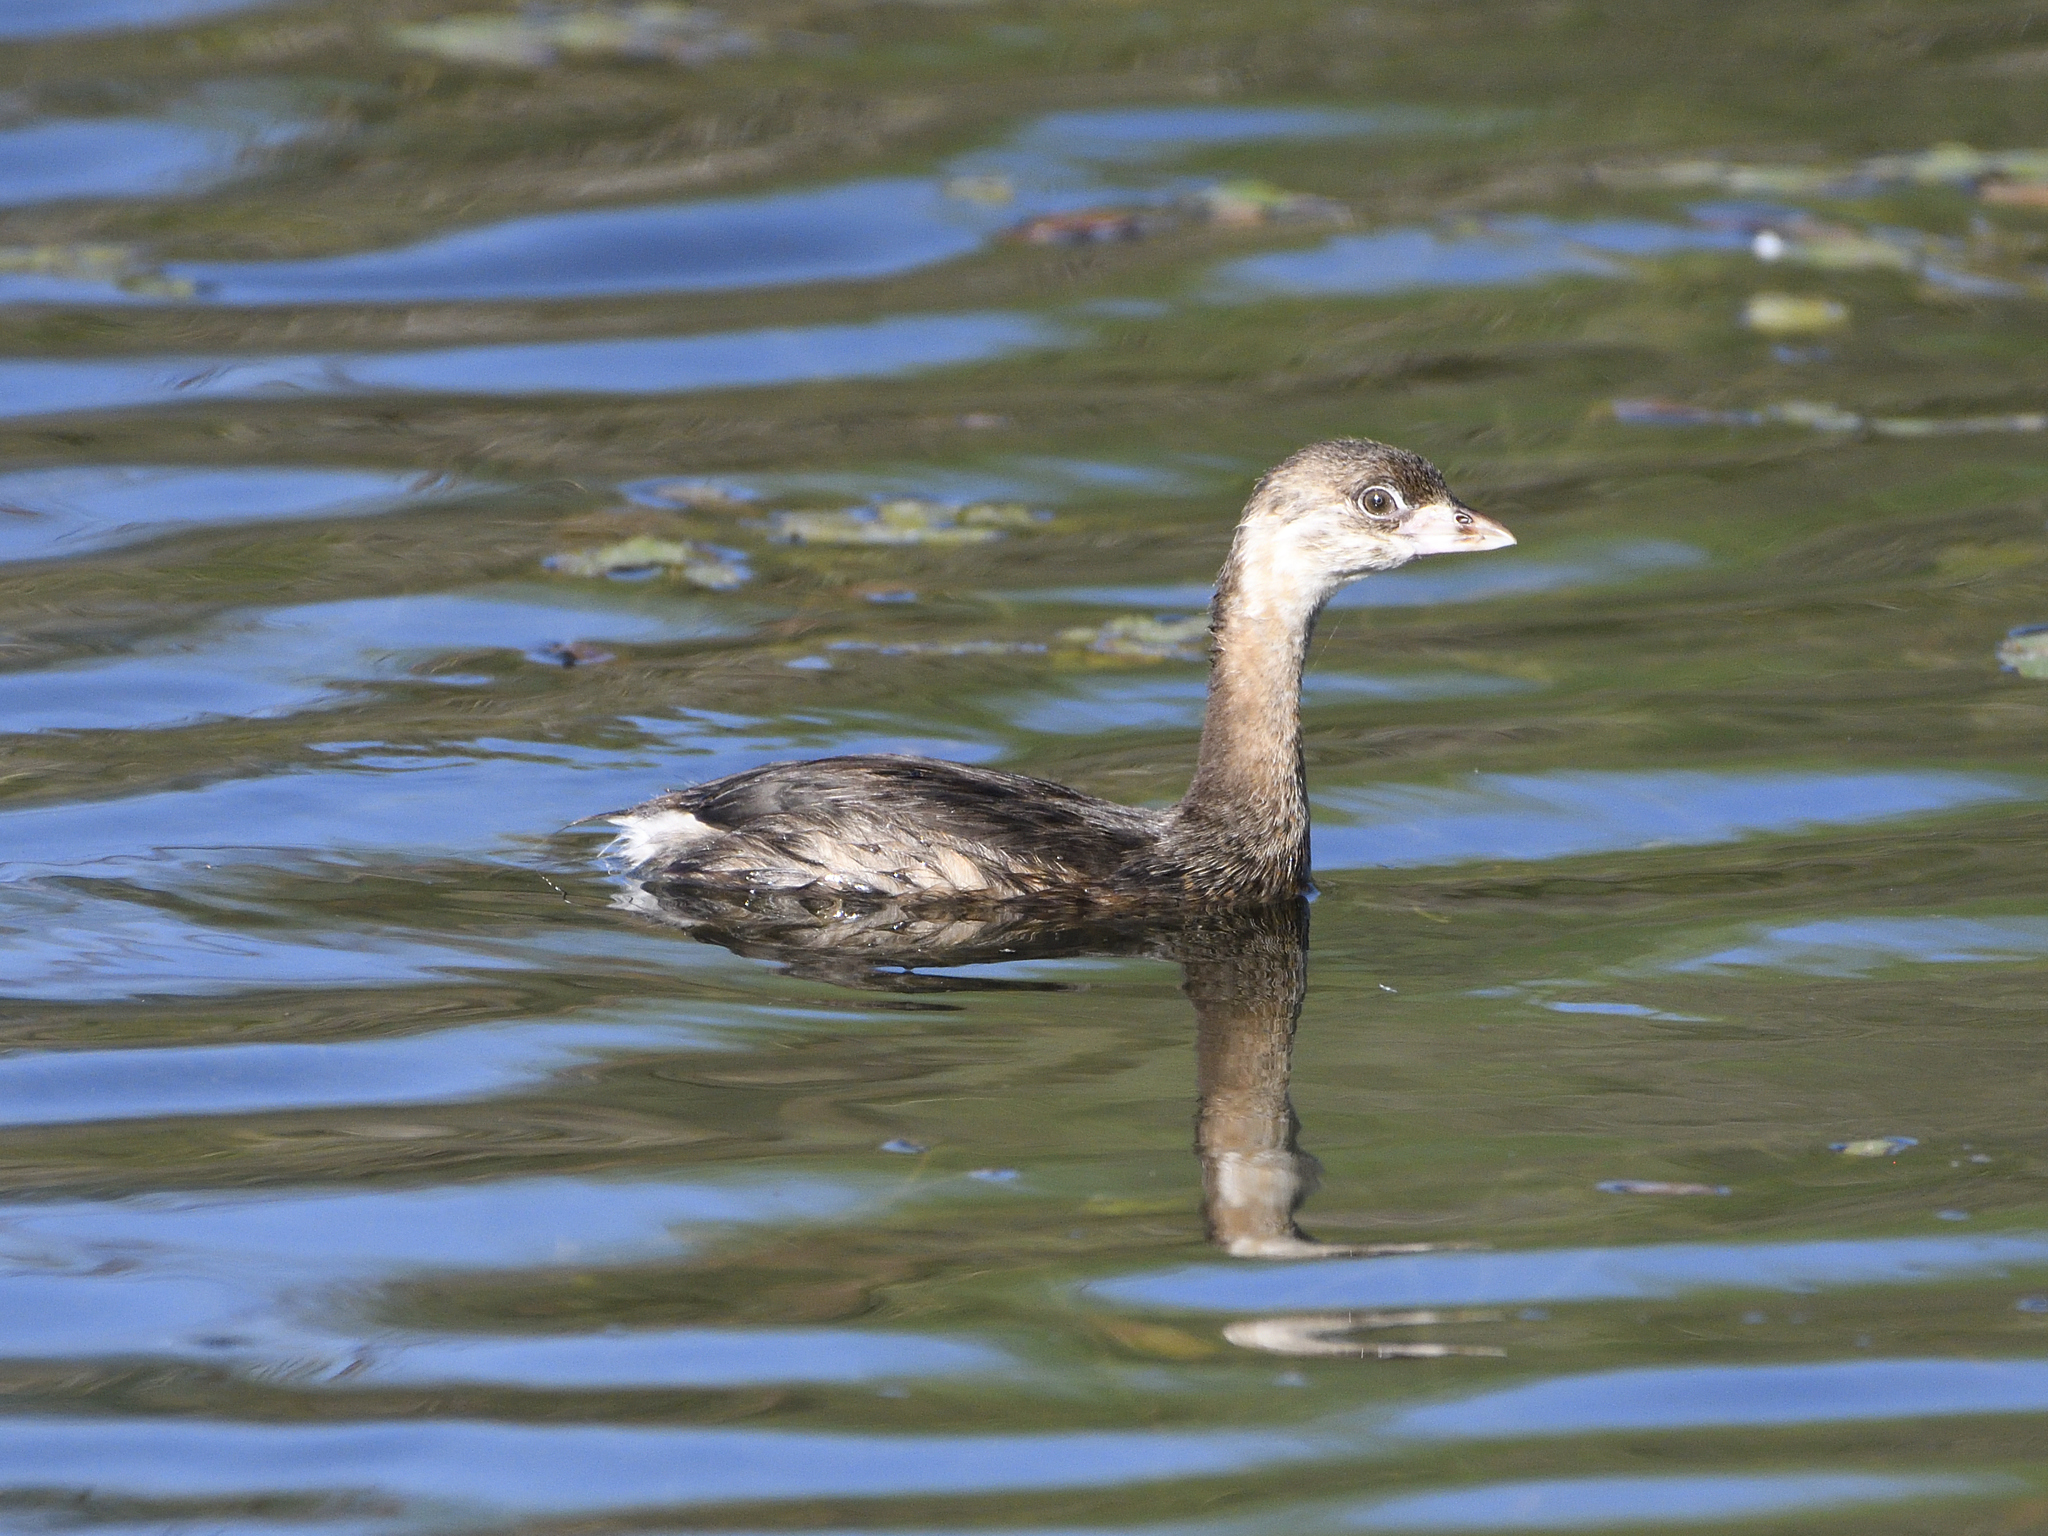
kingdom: Animalia
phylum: Chordata
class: Aves
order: Podicipediformes
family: Podicipedidae
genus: Podilymbus
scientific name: Podilymbus podiceps
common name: Pied-billed grebe
